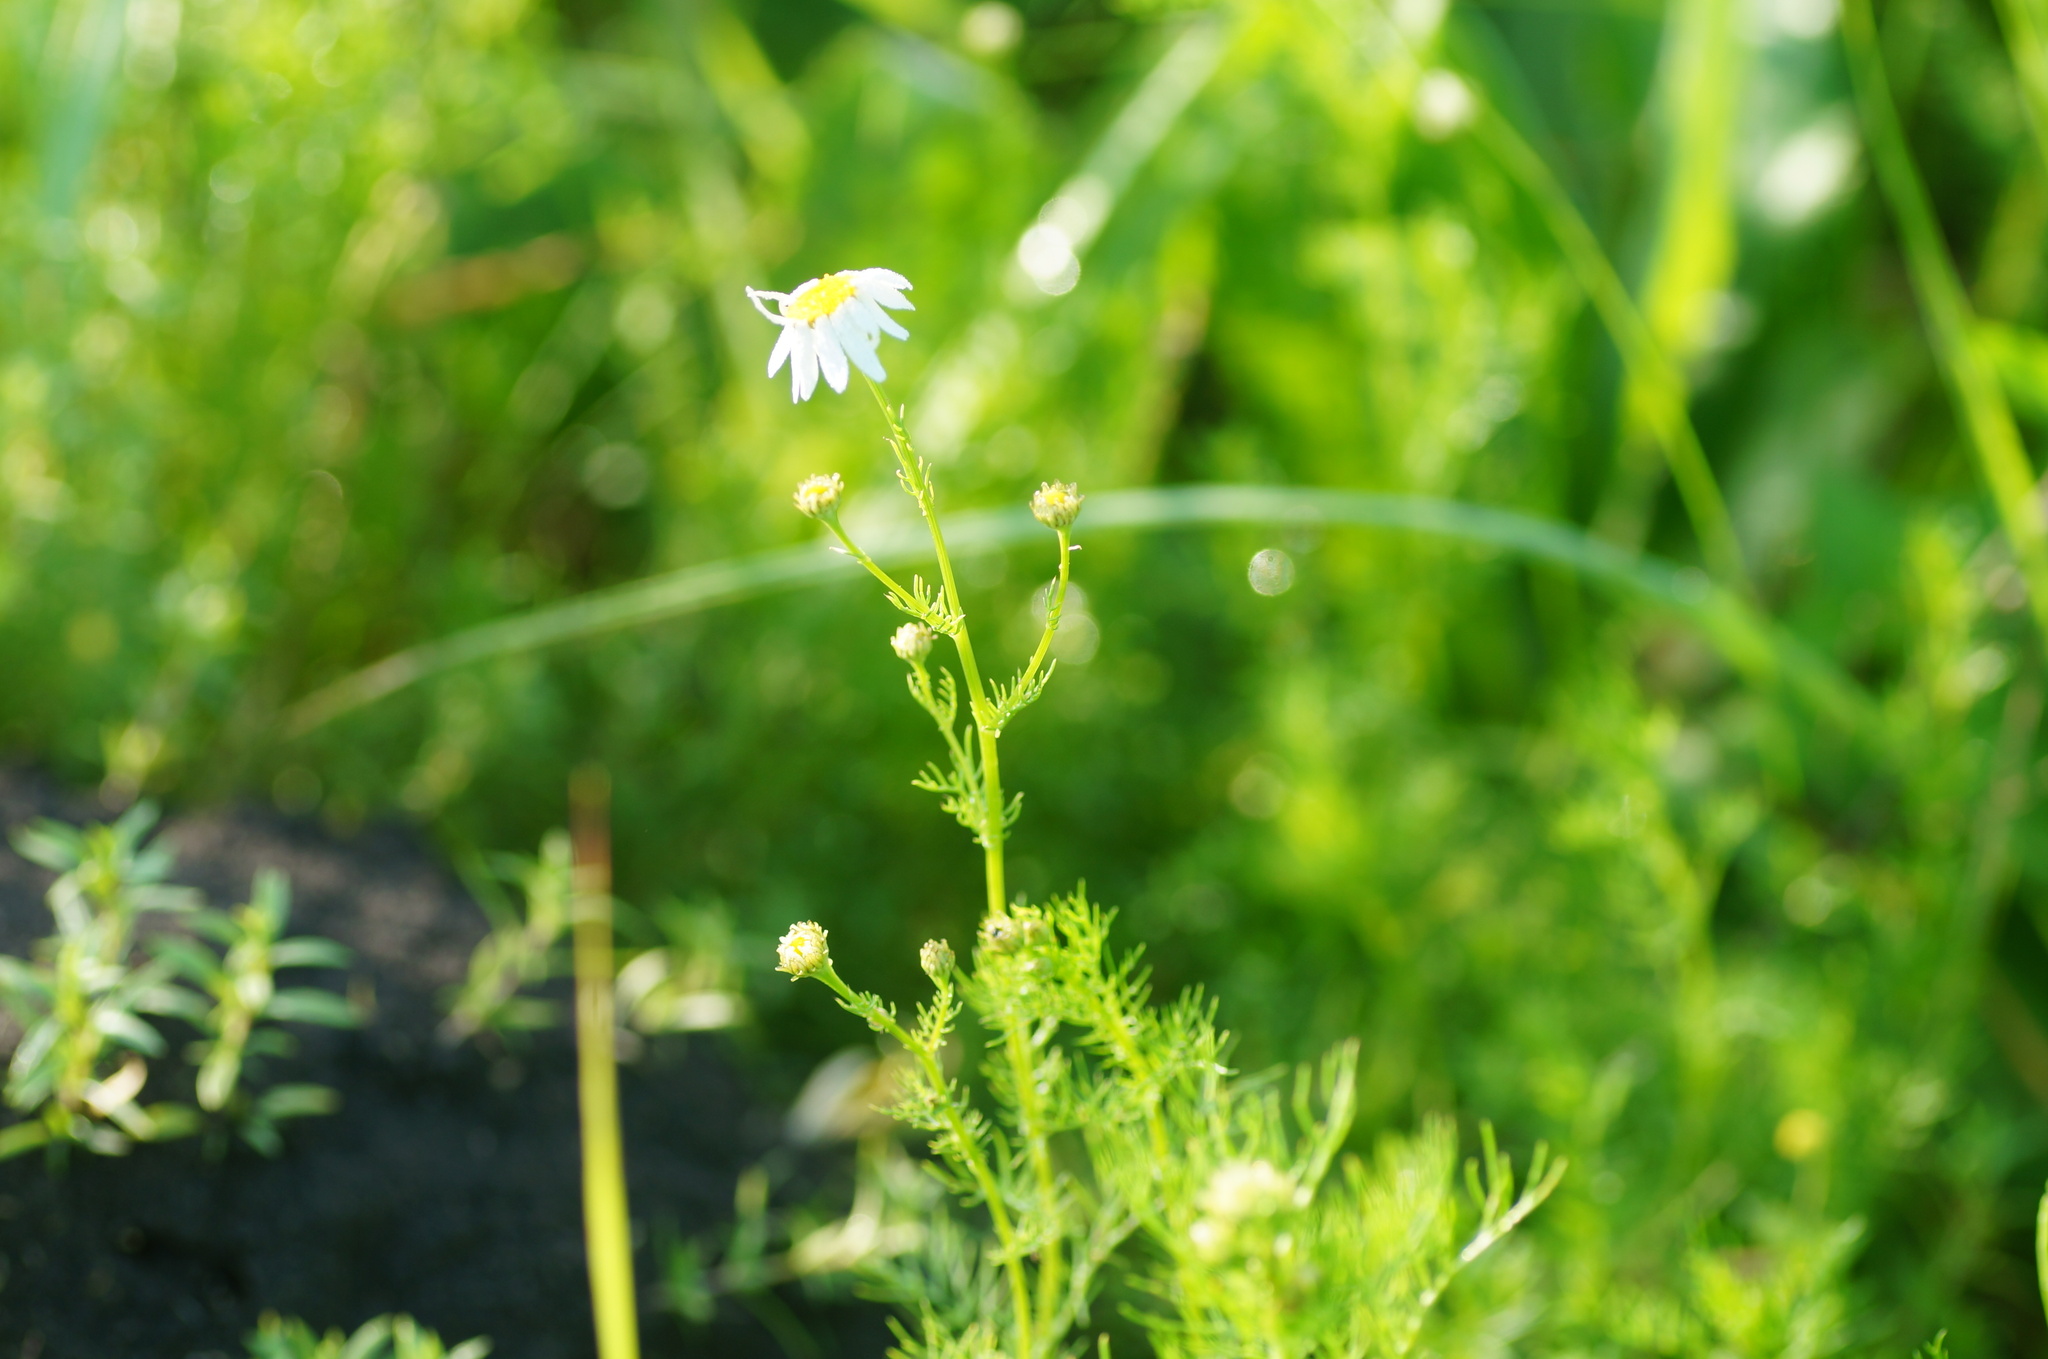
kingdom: Plantae
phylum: Tracheophyta
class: Magnoliopsida
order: Asterales
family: Asteraceae
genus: Tripleurospermum
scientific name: Tripleurospermum inodorum
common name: Scentless mayweed
